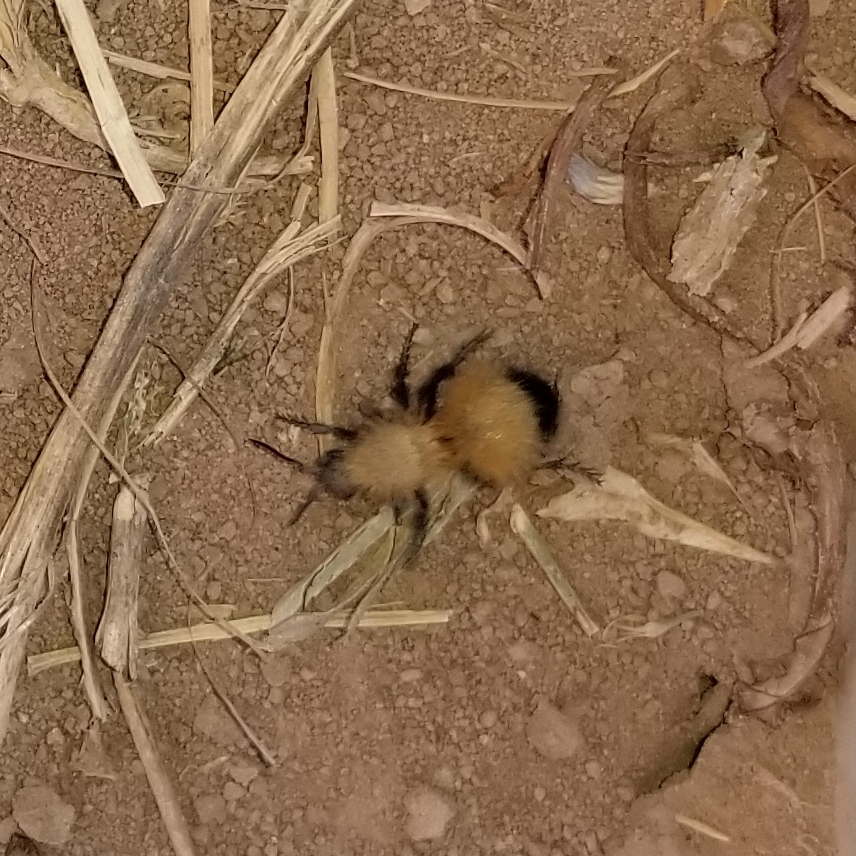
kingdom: Animalia
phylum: Arthropoda
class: Insecta
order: Hymenoptera
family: Mutillidae
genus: Dasymutilla
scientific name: Dasymutilla arenivaga
